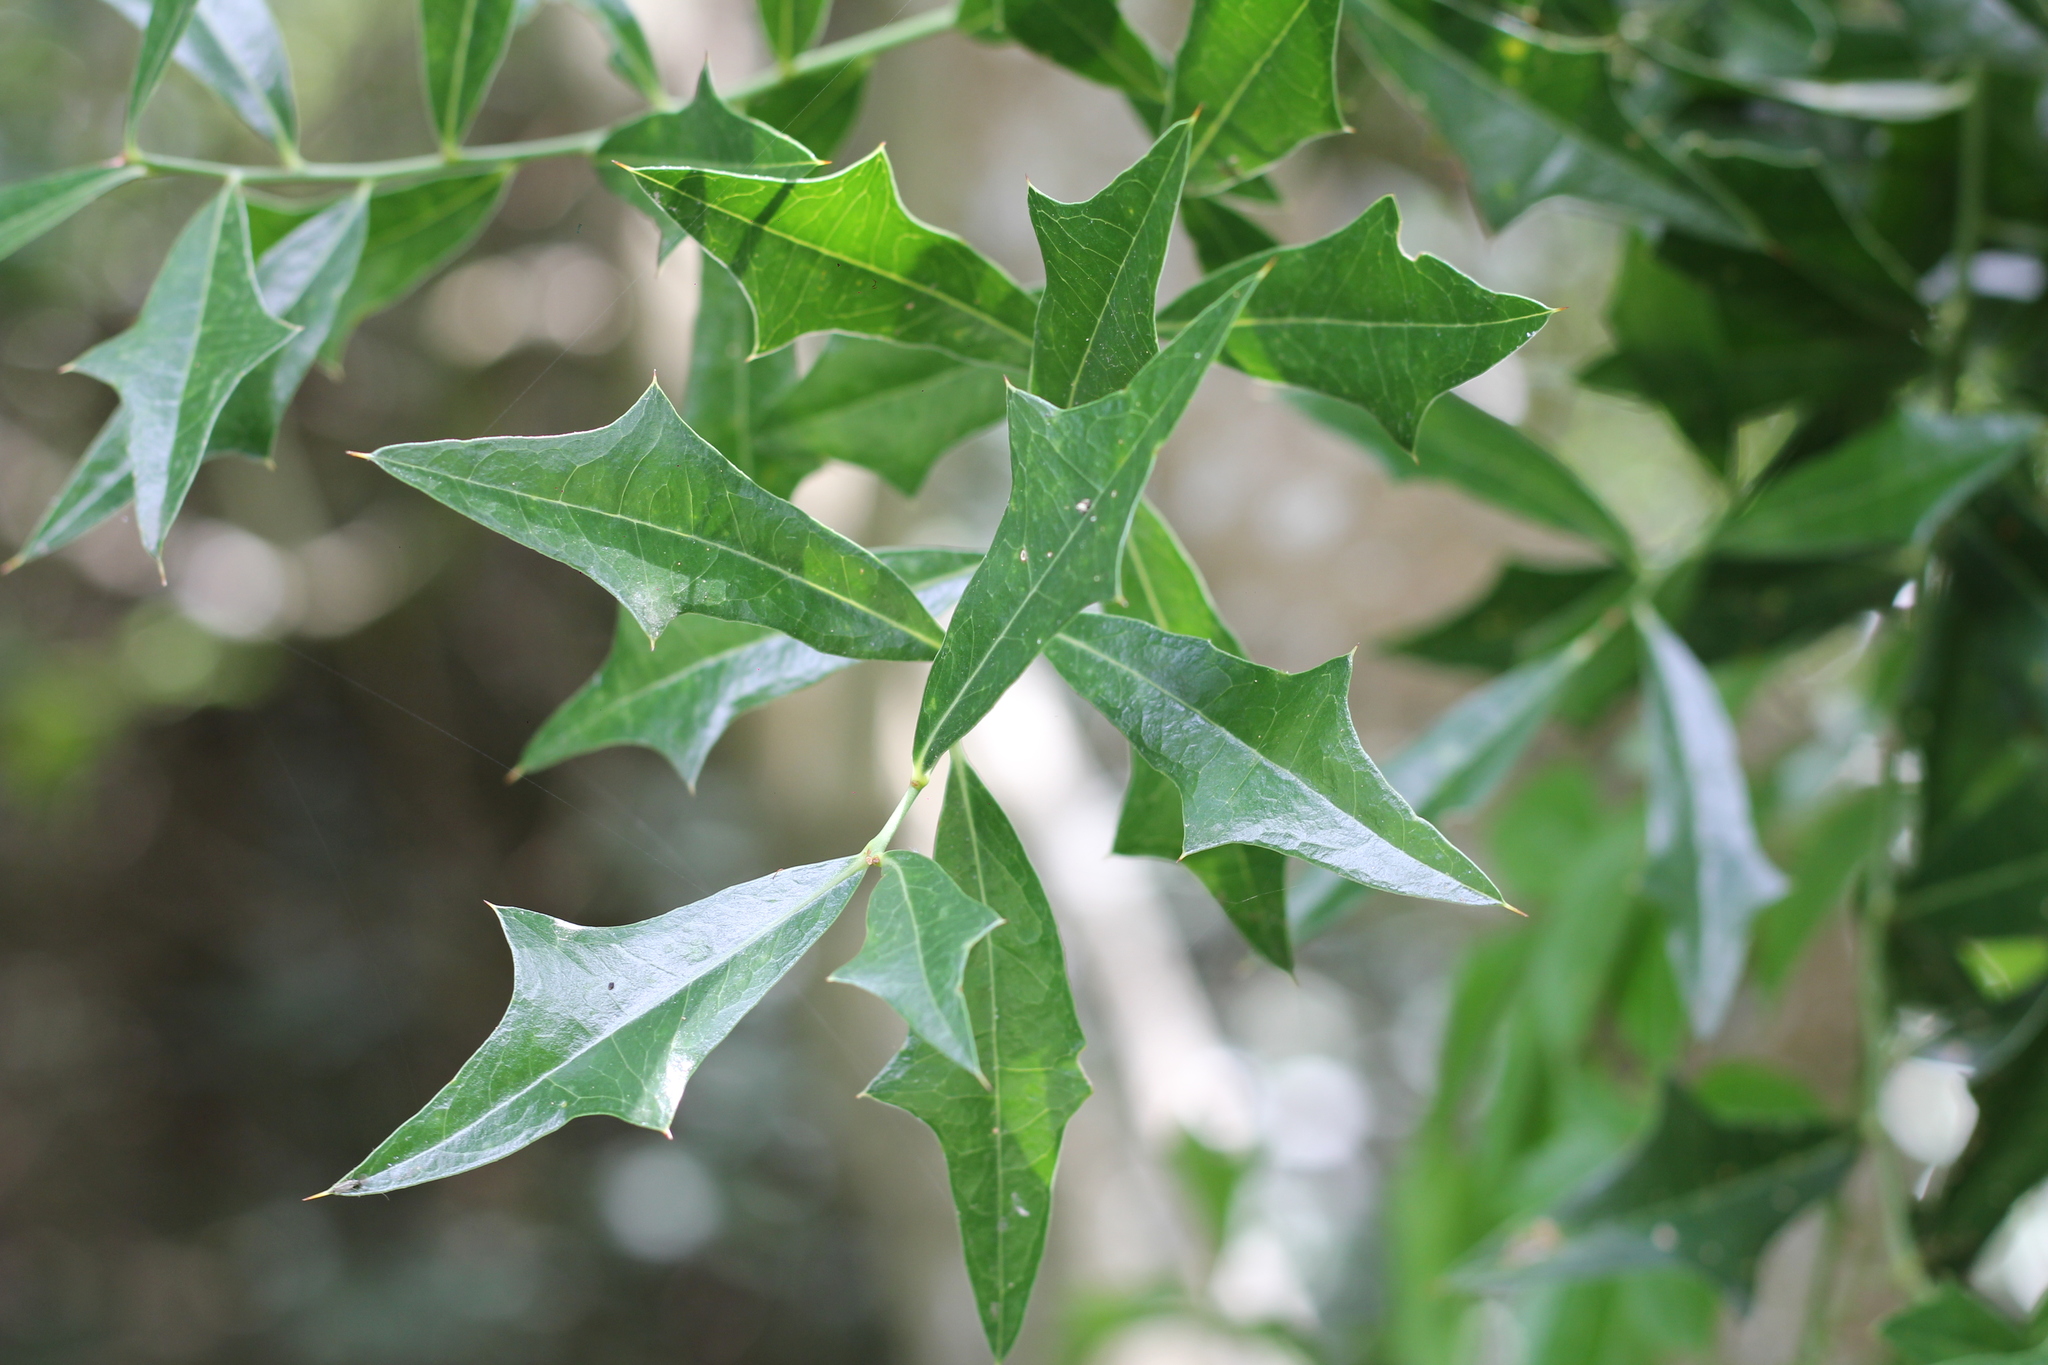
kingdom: Plantae
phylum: Tracheophyta
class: Magnoliopsida
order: Santalales
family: Cervantesiaceae
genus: Jodina
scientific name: Jodina rhombifolia
